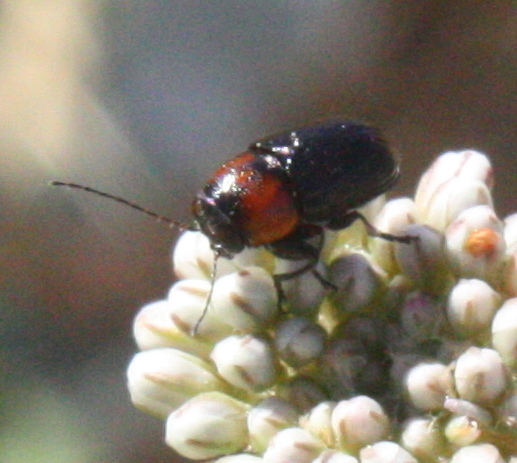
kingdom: Animalia
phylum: Arthropoda
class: Insecta
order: Coleoptera
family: Chrysomelidae
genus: Pachybrachis
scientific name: Pachybrachis hybridus
